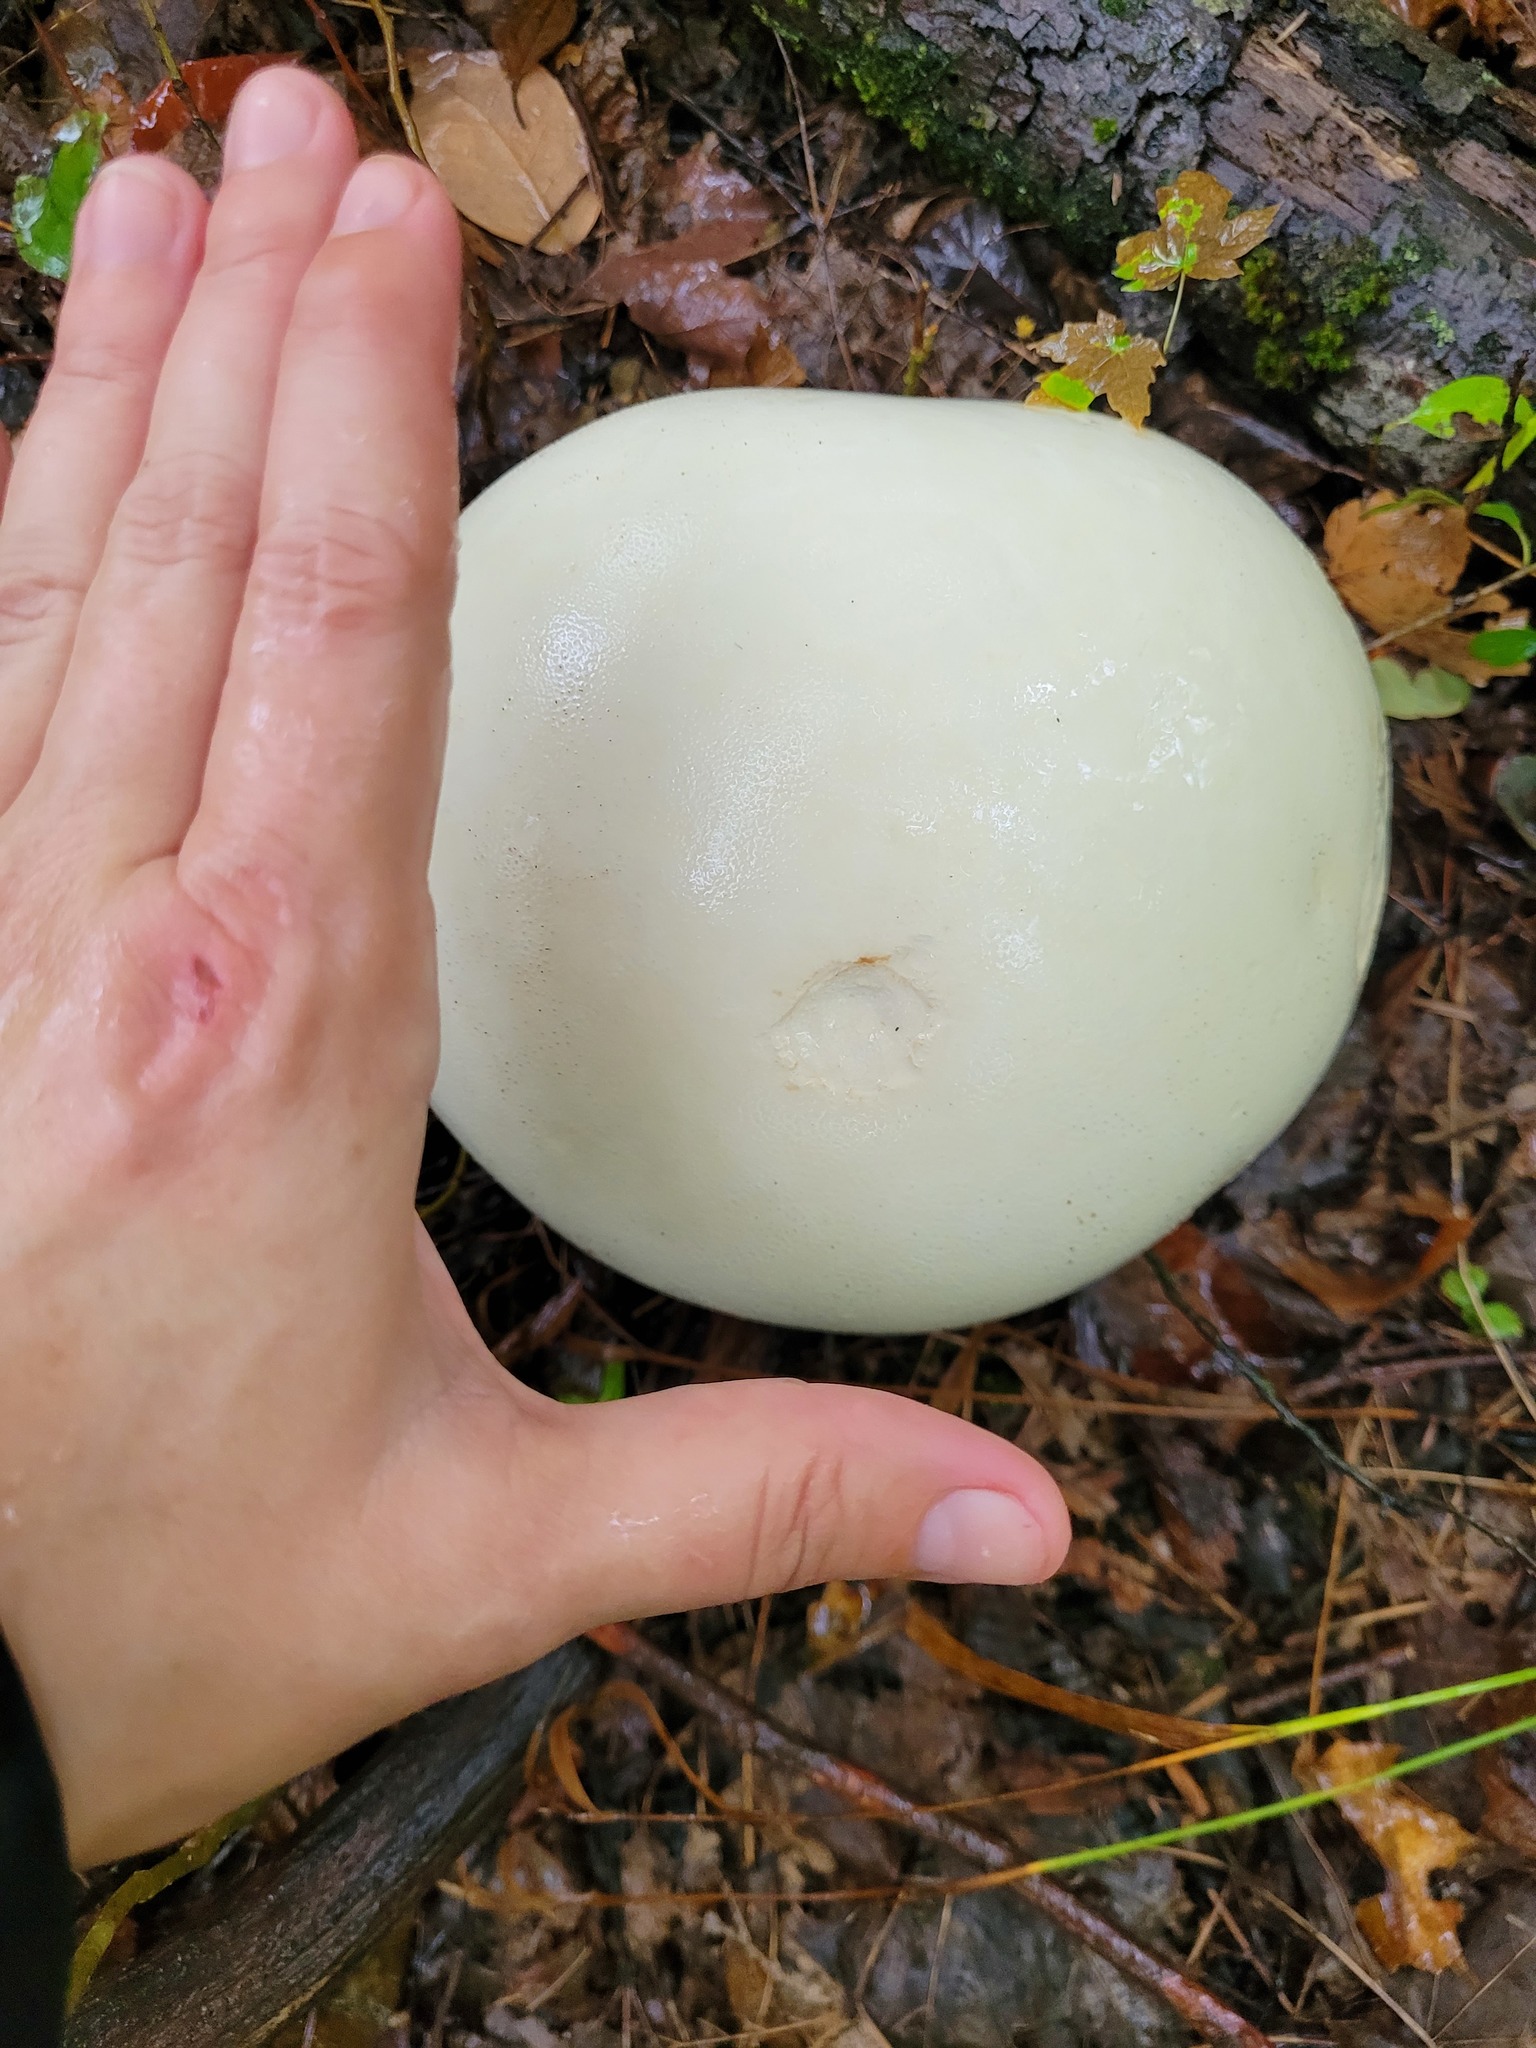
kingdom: Fungi
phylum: Basidiomycota
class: Agaricomycetes
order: Agaricales
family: Lycoperdaceae
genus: Calvatia
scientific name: Calvatia gigantea
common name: Giant puffball
